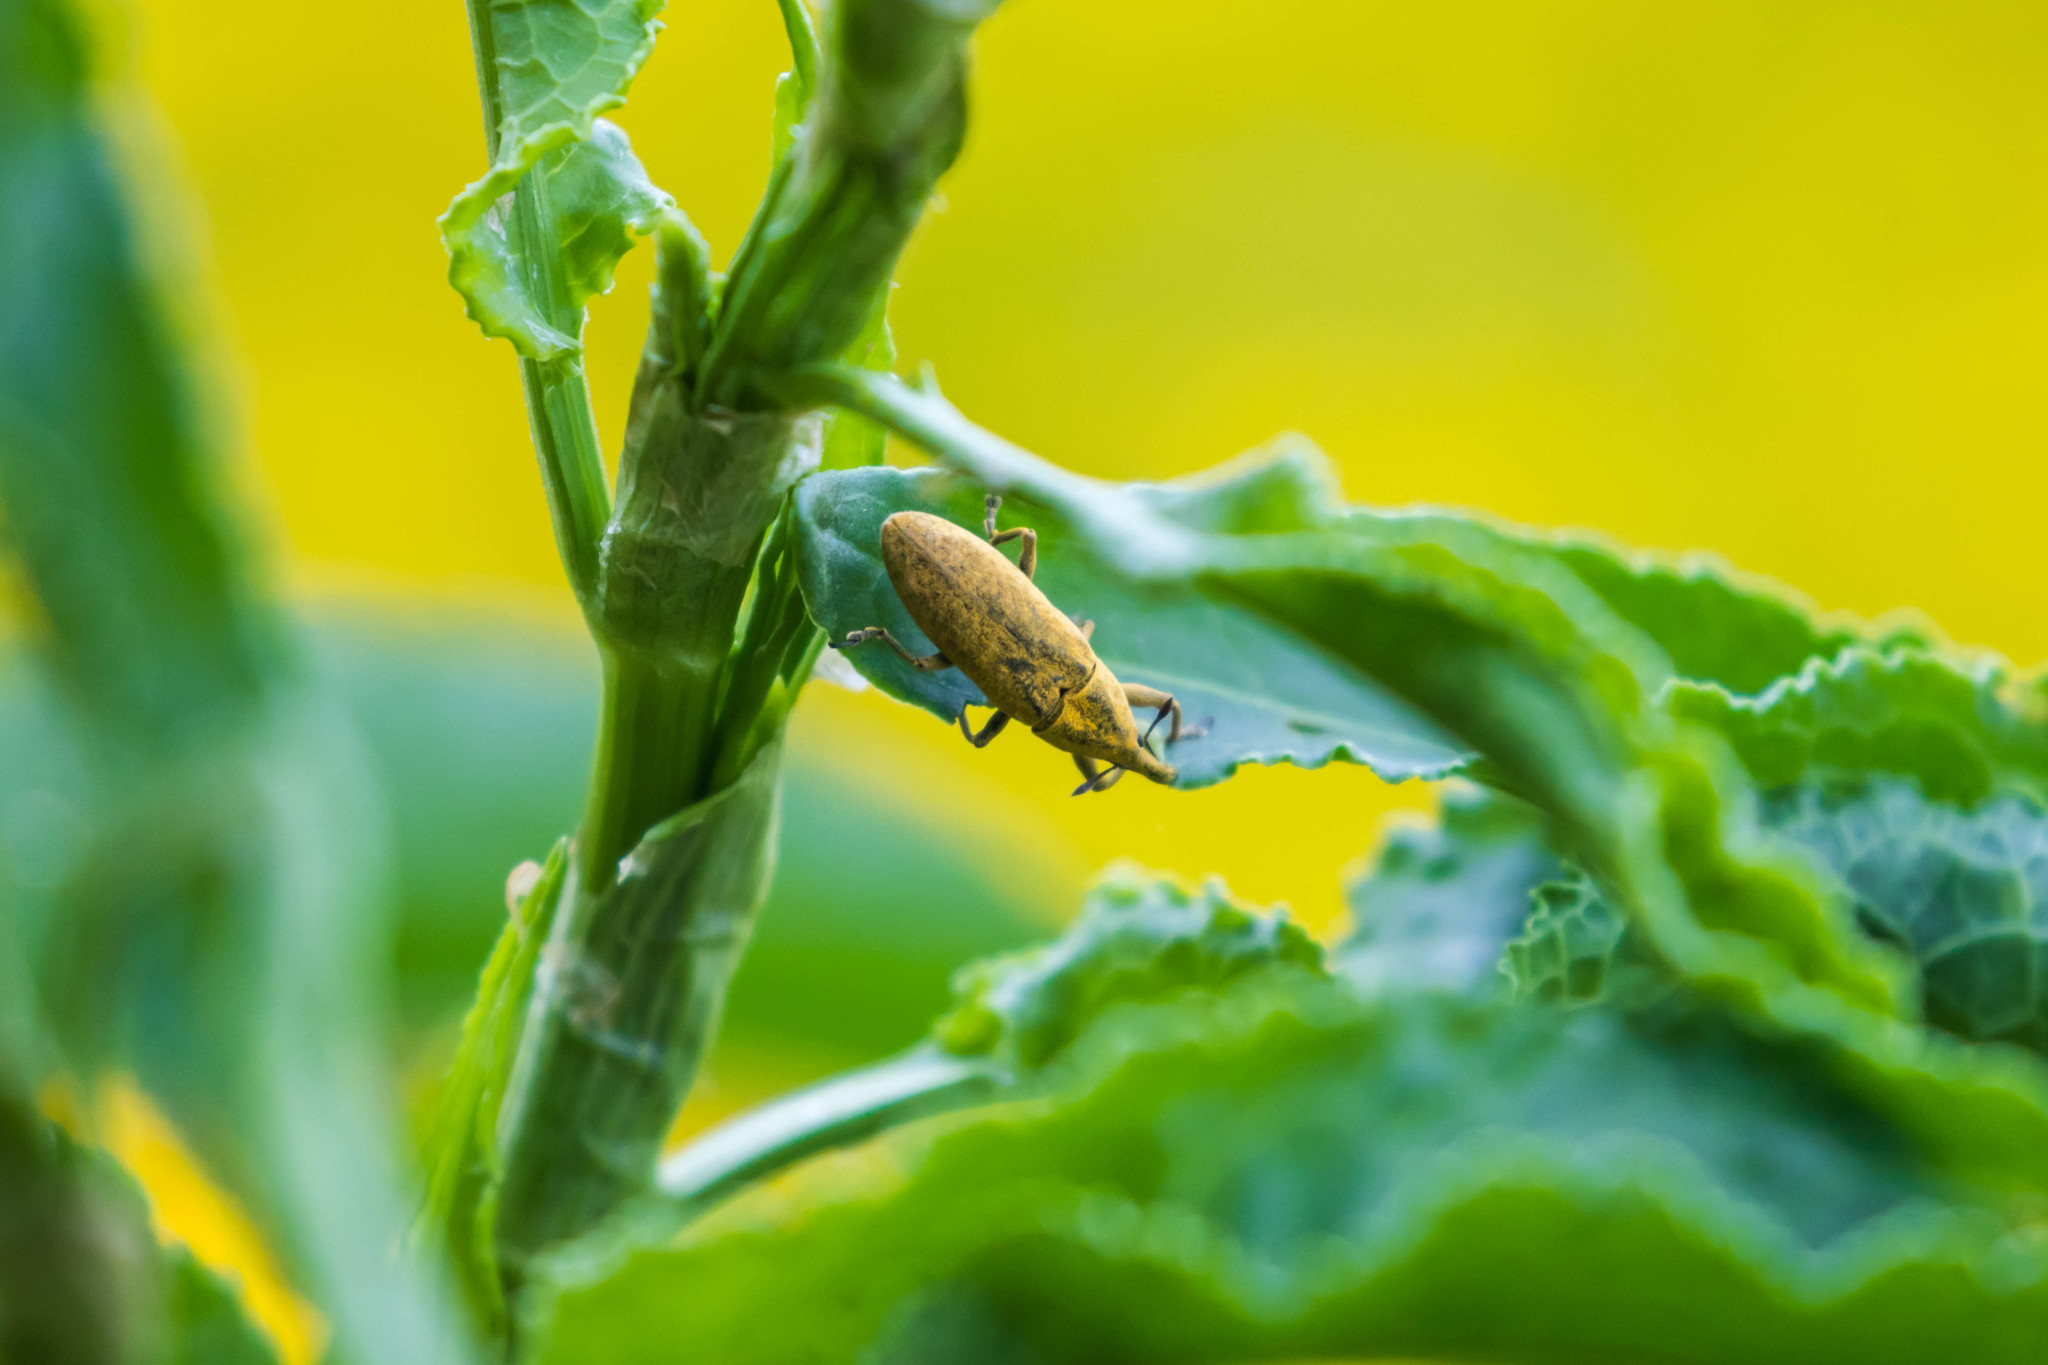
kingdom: Animalia
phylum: Arthropoda
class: Insecta
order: Coleoptera
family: Curculionidae
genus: Lixus
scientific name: Lixus concavus
